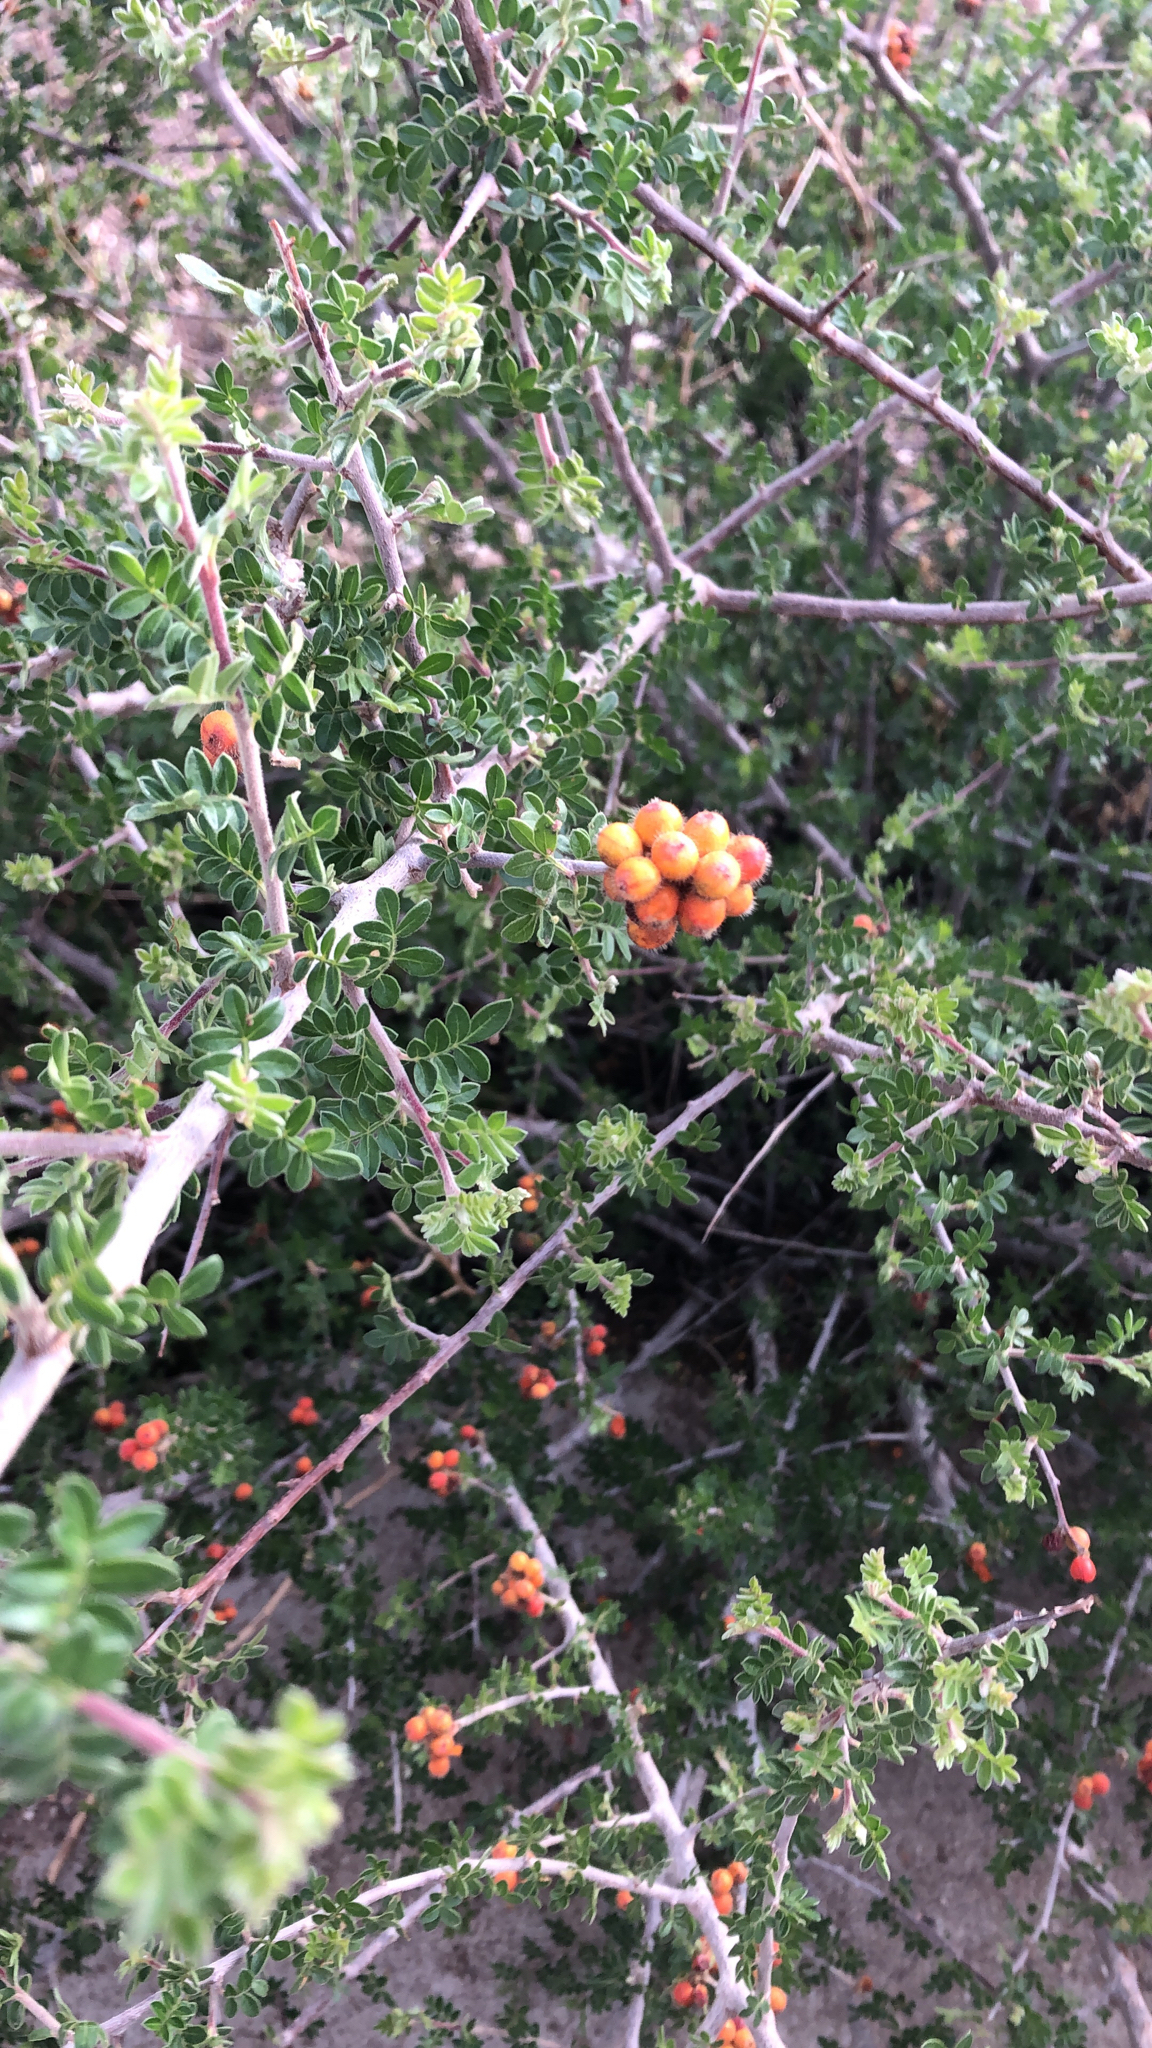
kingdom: Plantae
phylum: Tracheophyta
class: Magnoliopsida
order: Sapindales
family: Anacardiaceae
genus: Rhus
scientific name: Rhus microphylla
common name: Desert sumac
